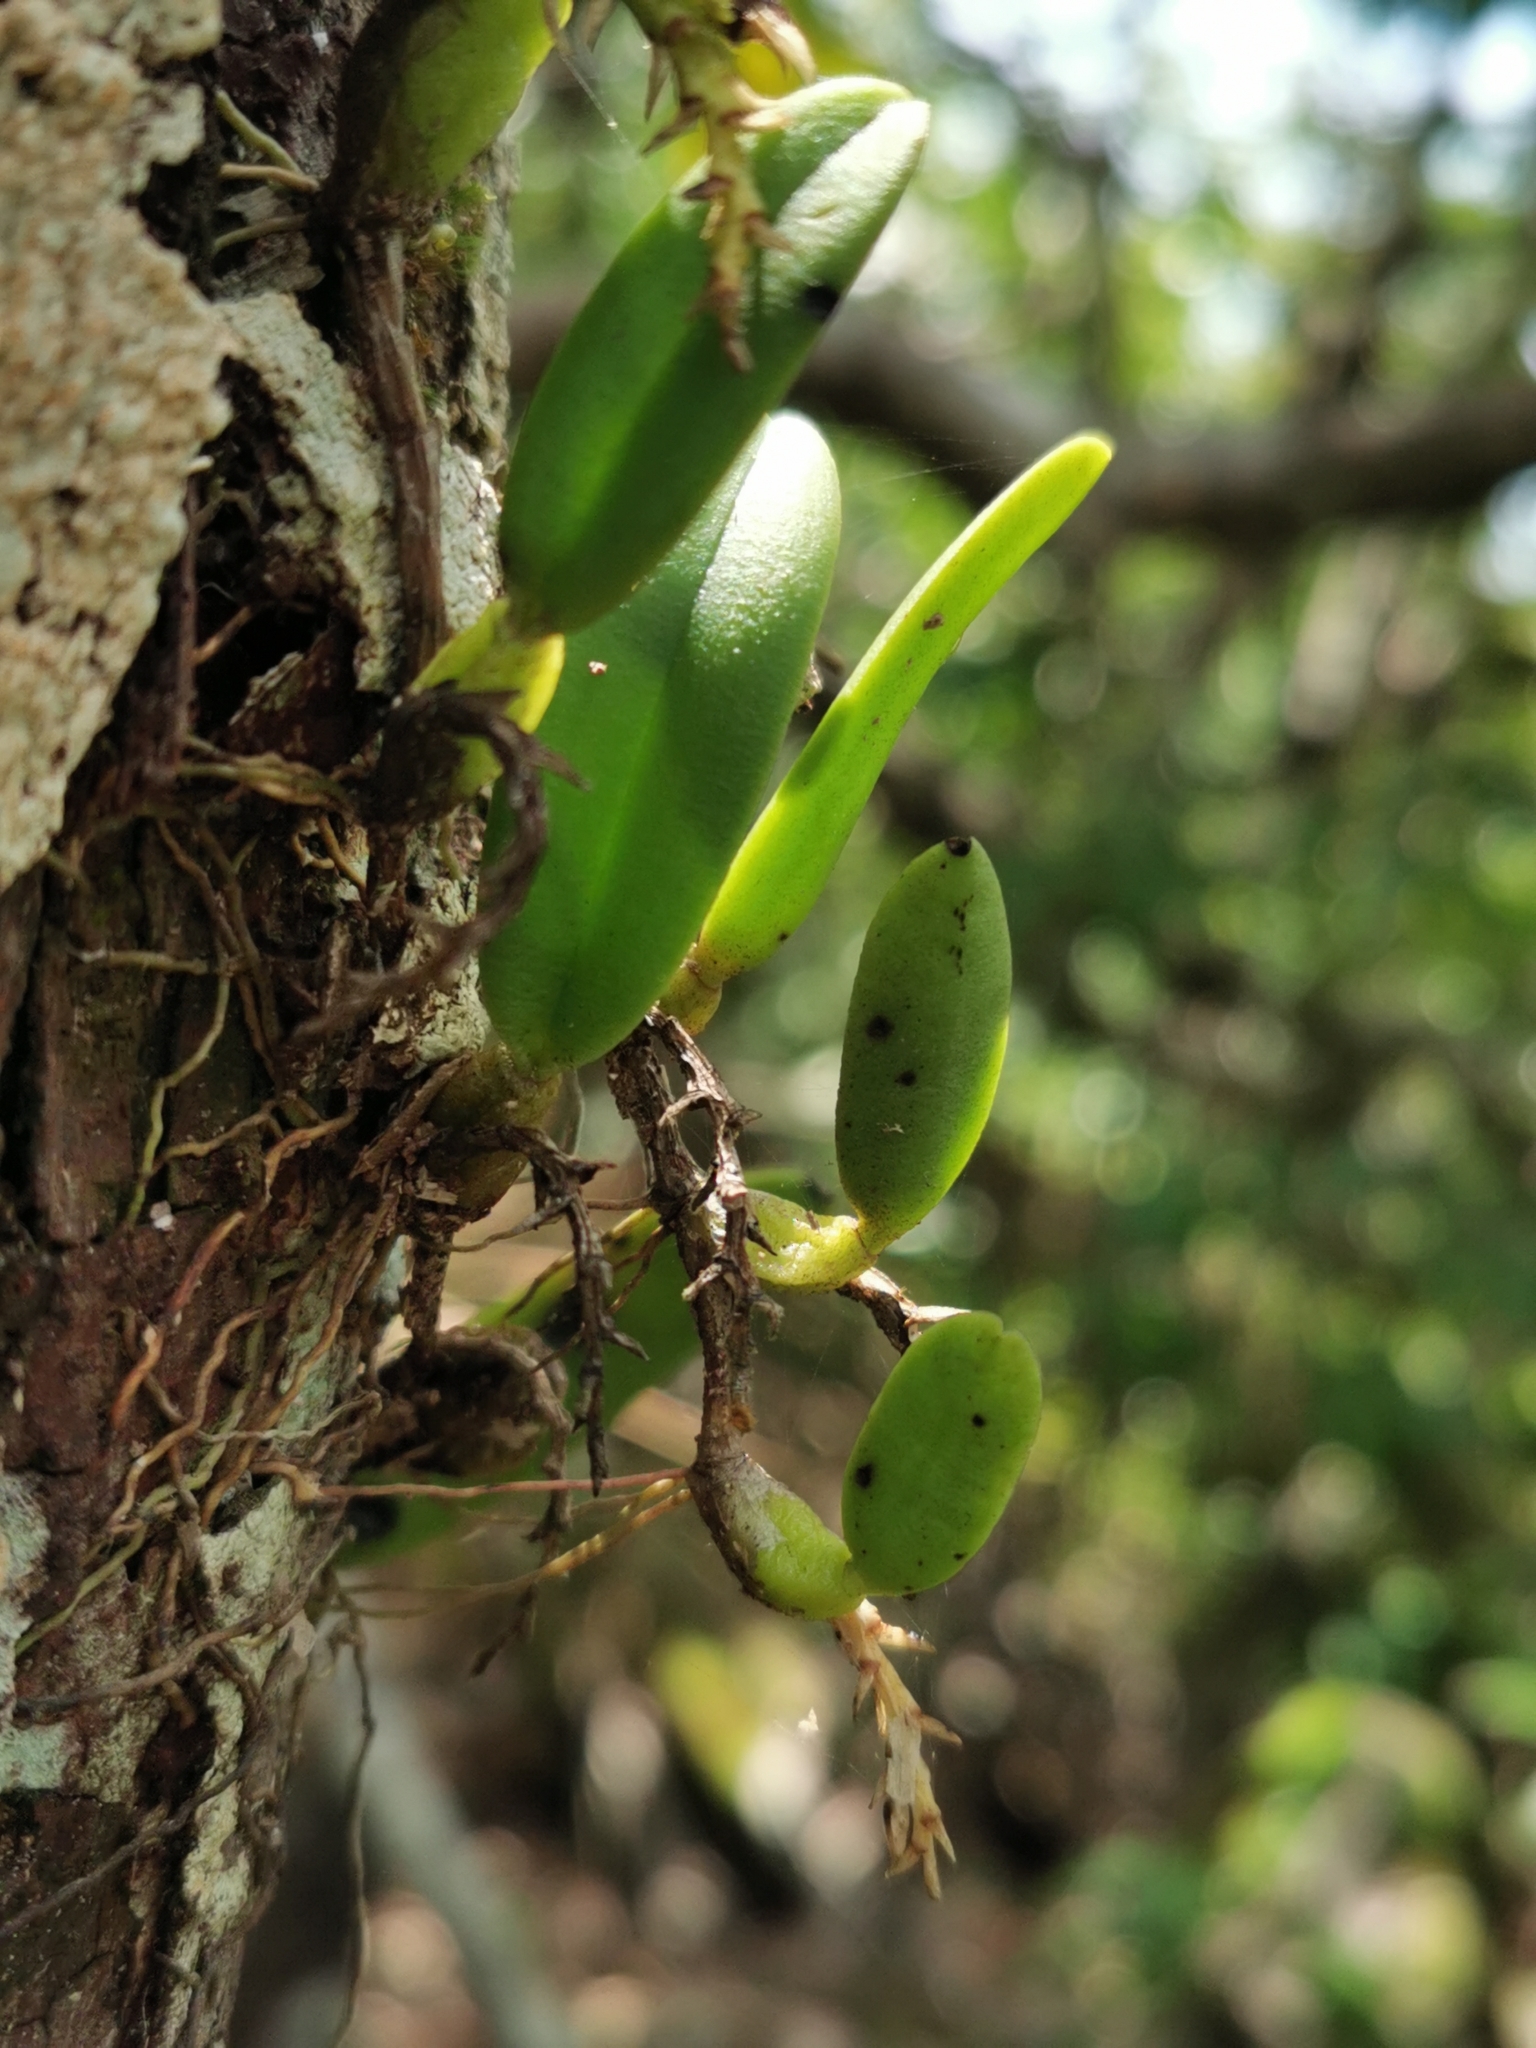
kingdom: Plantae
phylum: Tracheophyta
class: Liliopsida
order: Asparagales
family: Orchidaceae
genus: Bulbophyllum
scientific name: Bulbophyllum humblotii
